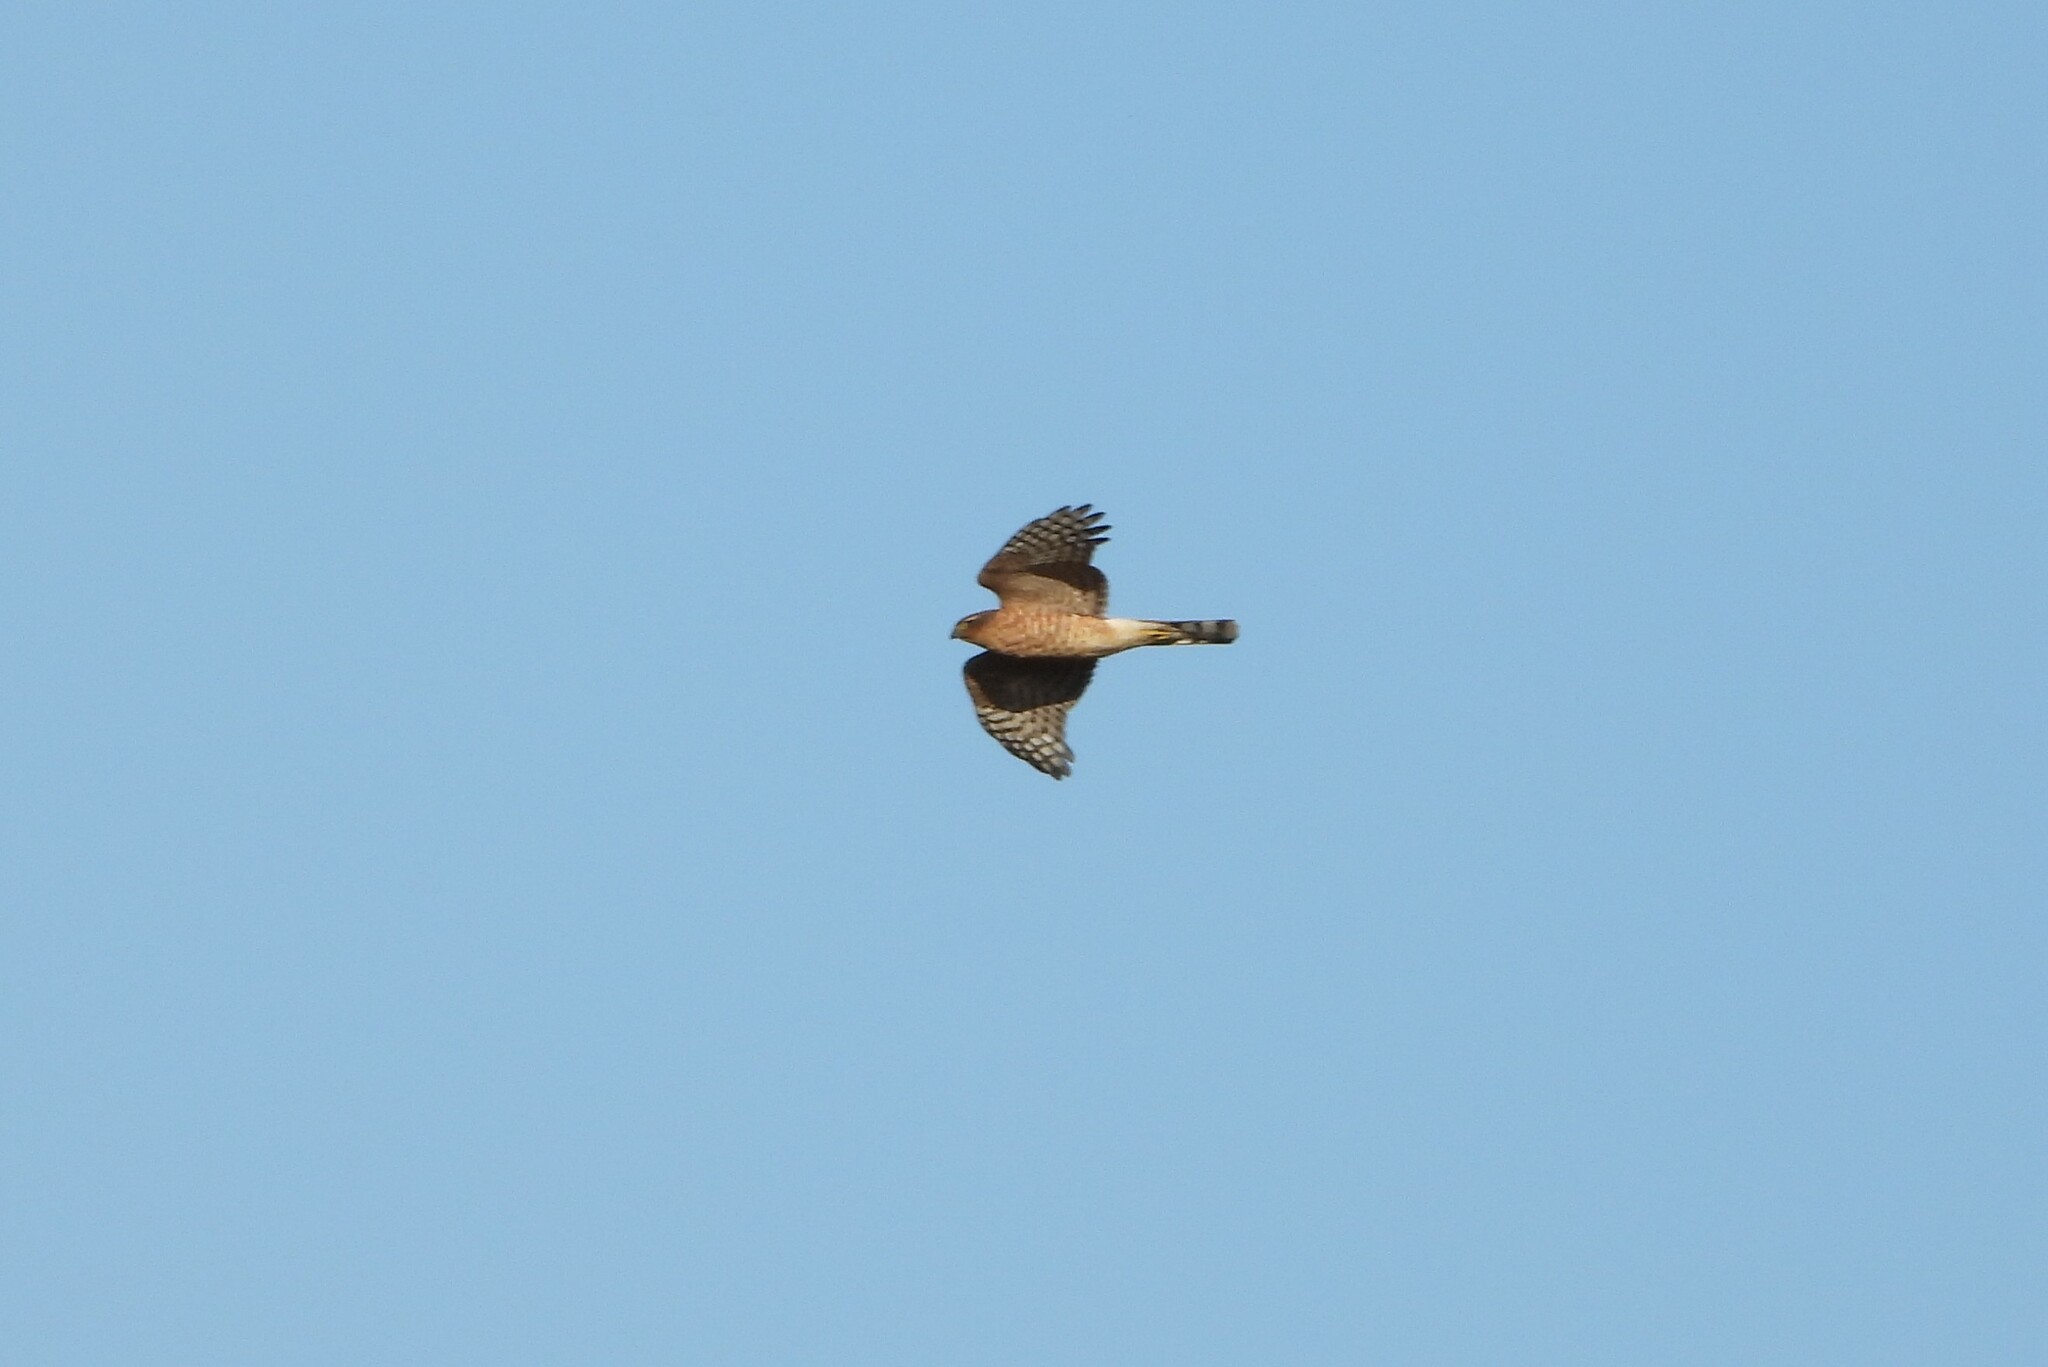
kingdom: Animalia
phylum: Chordata
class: Aves
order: Accipitriformes
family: Accipitridae
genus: Accipiter
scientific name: Accipiter nisus
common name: Eurasian sparrowhawk
